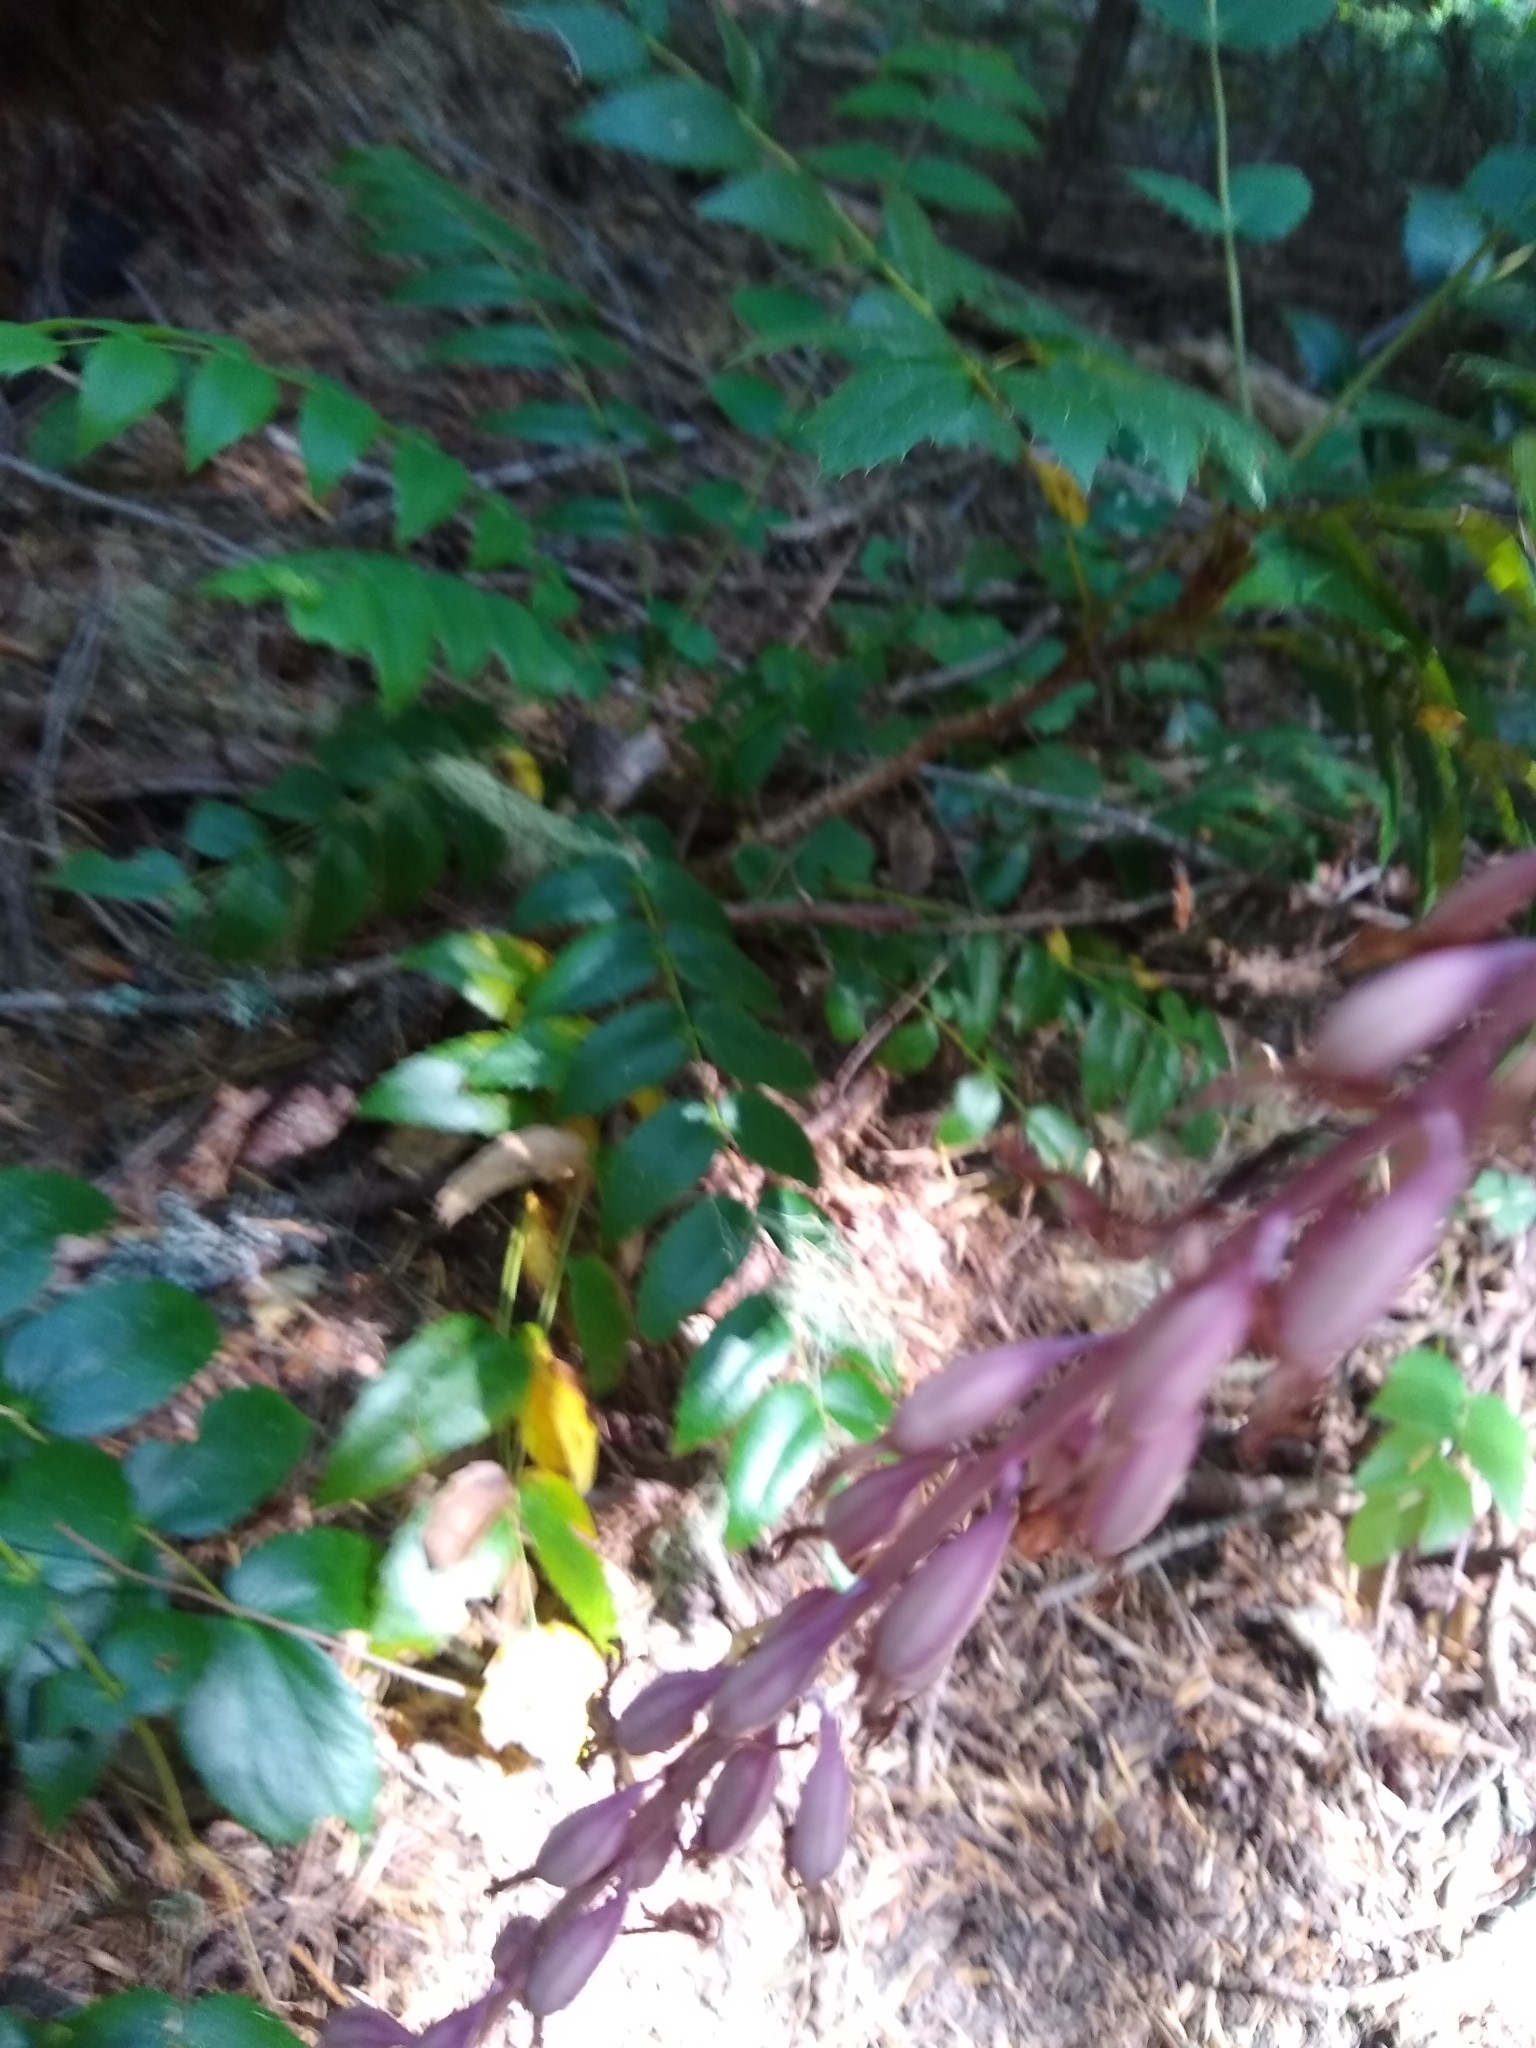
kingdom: Plantae
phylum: Tracheophyta
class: Liliopsida
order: Asparagales
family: Orchidaceae
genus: Corallorhiza
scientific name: Corallorhiza mertensiana
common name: Pacific coralroot
